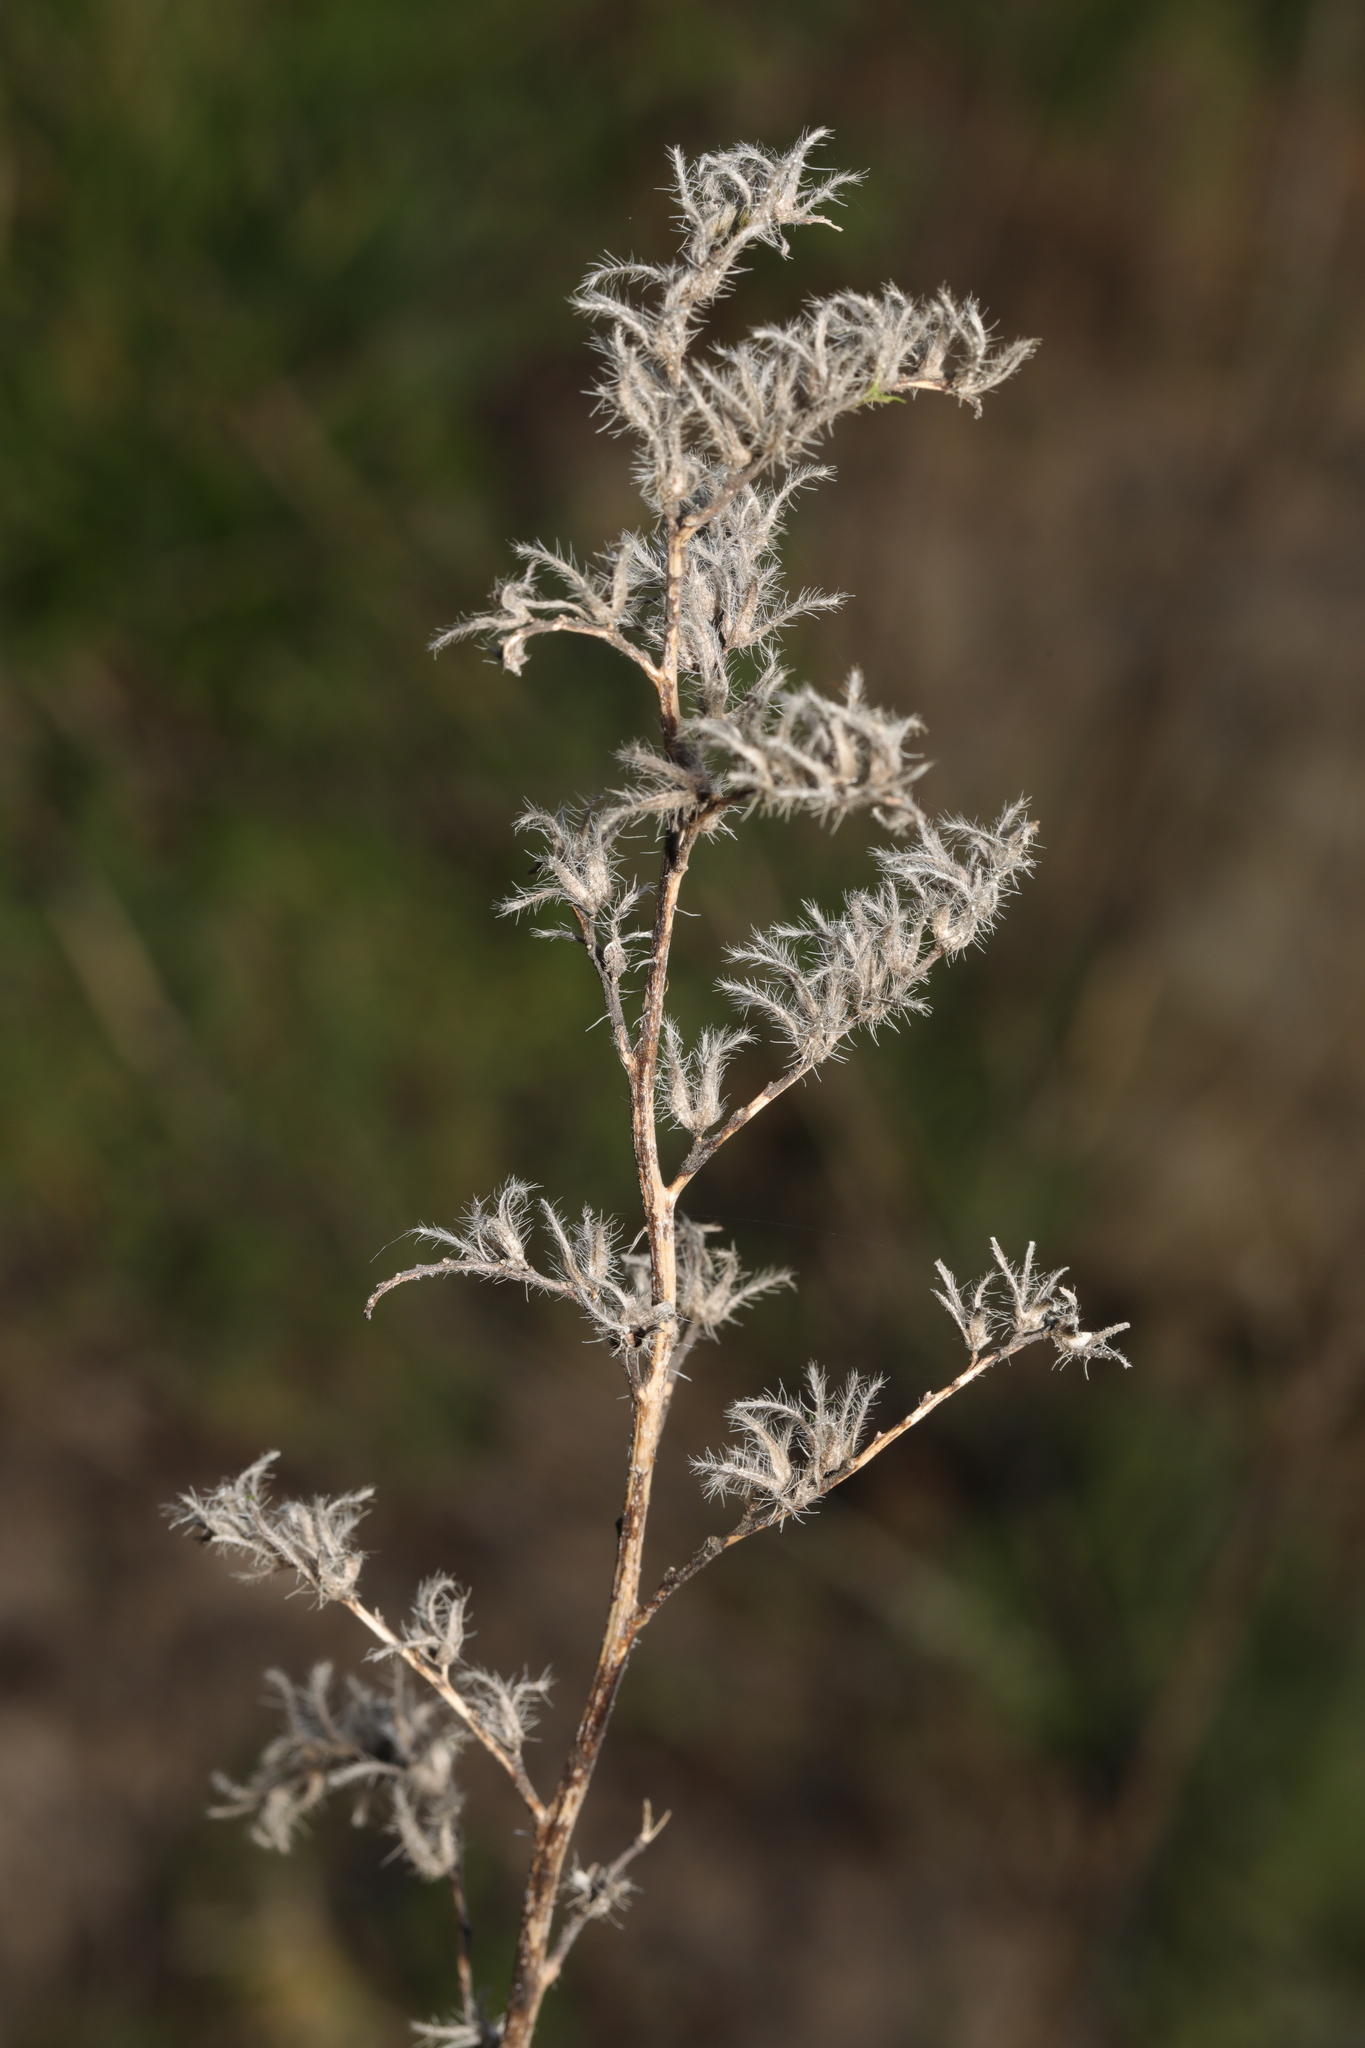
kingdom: Plantae
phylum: Tracheophyta
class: Magnoliopsida
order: Boraginales
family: Boraginaceae
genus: Echium
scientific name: Echium vulgare
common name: Common viper's bugloss
